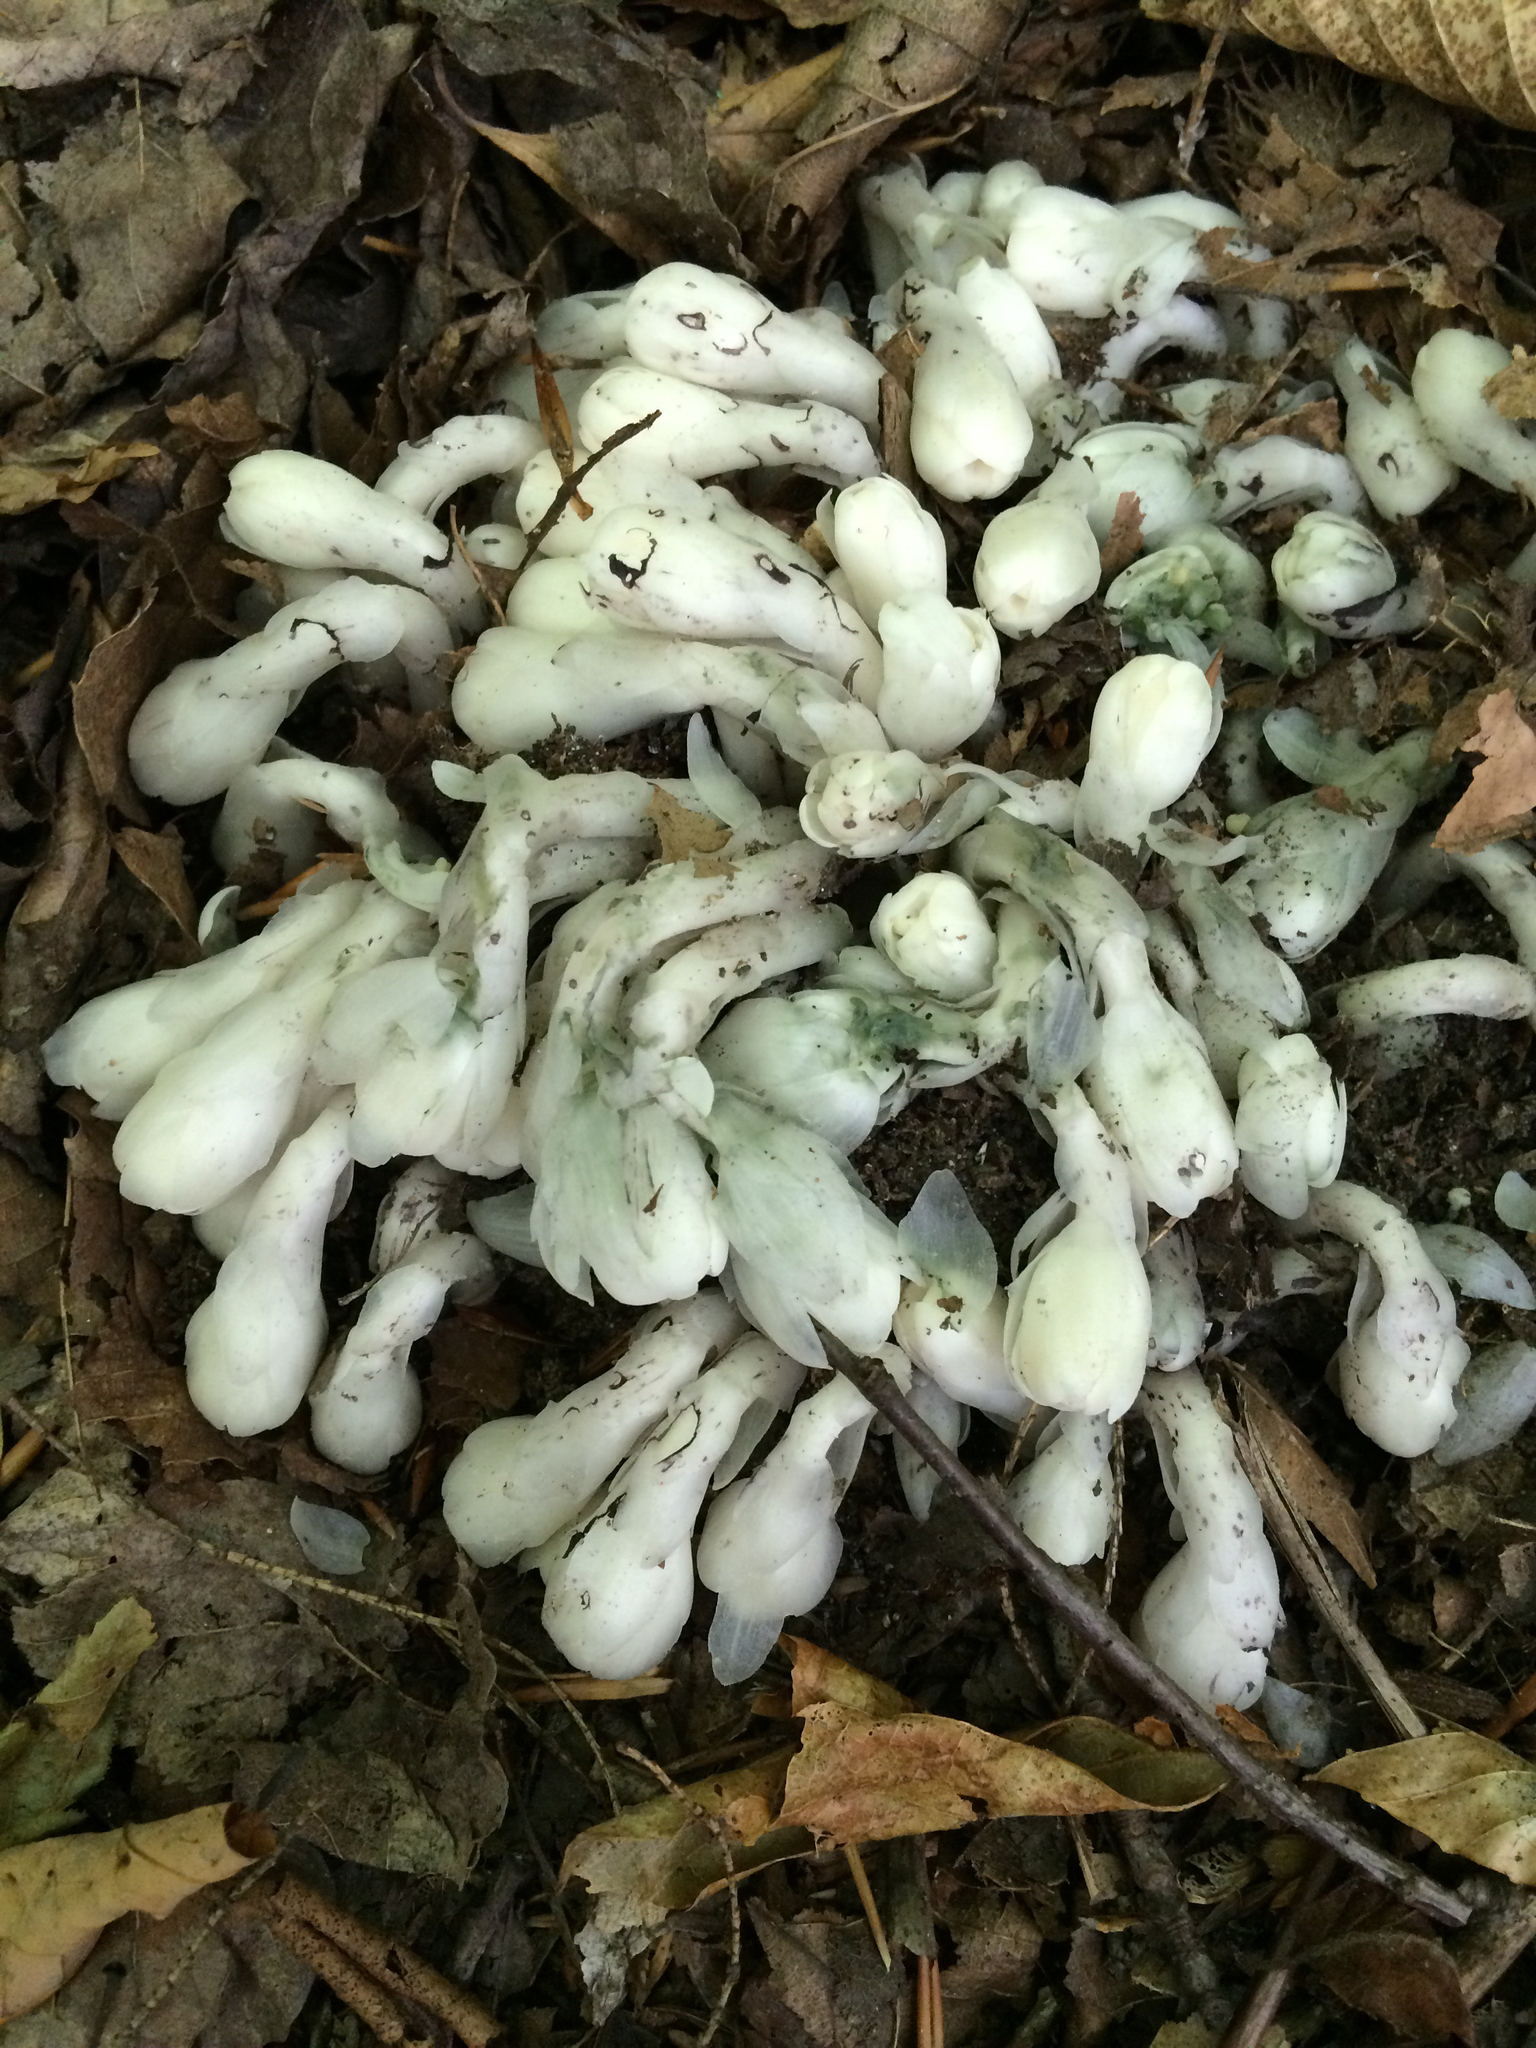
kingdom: Plantae
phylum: Tracheophyta
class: Magnoliopsida
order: Ericales
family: Ericaceae
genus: Monotropa
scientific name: Monotropa uniflora
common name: Convulsion root
